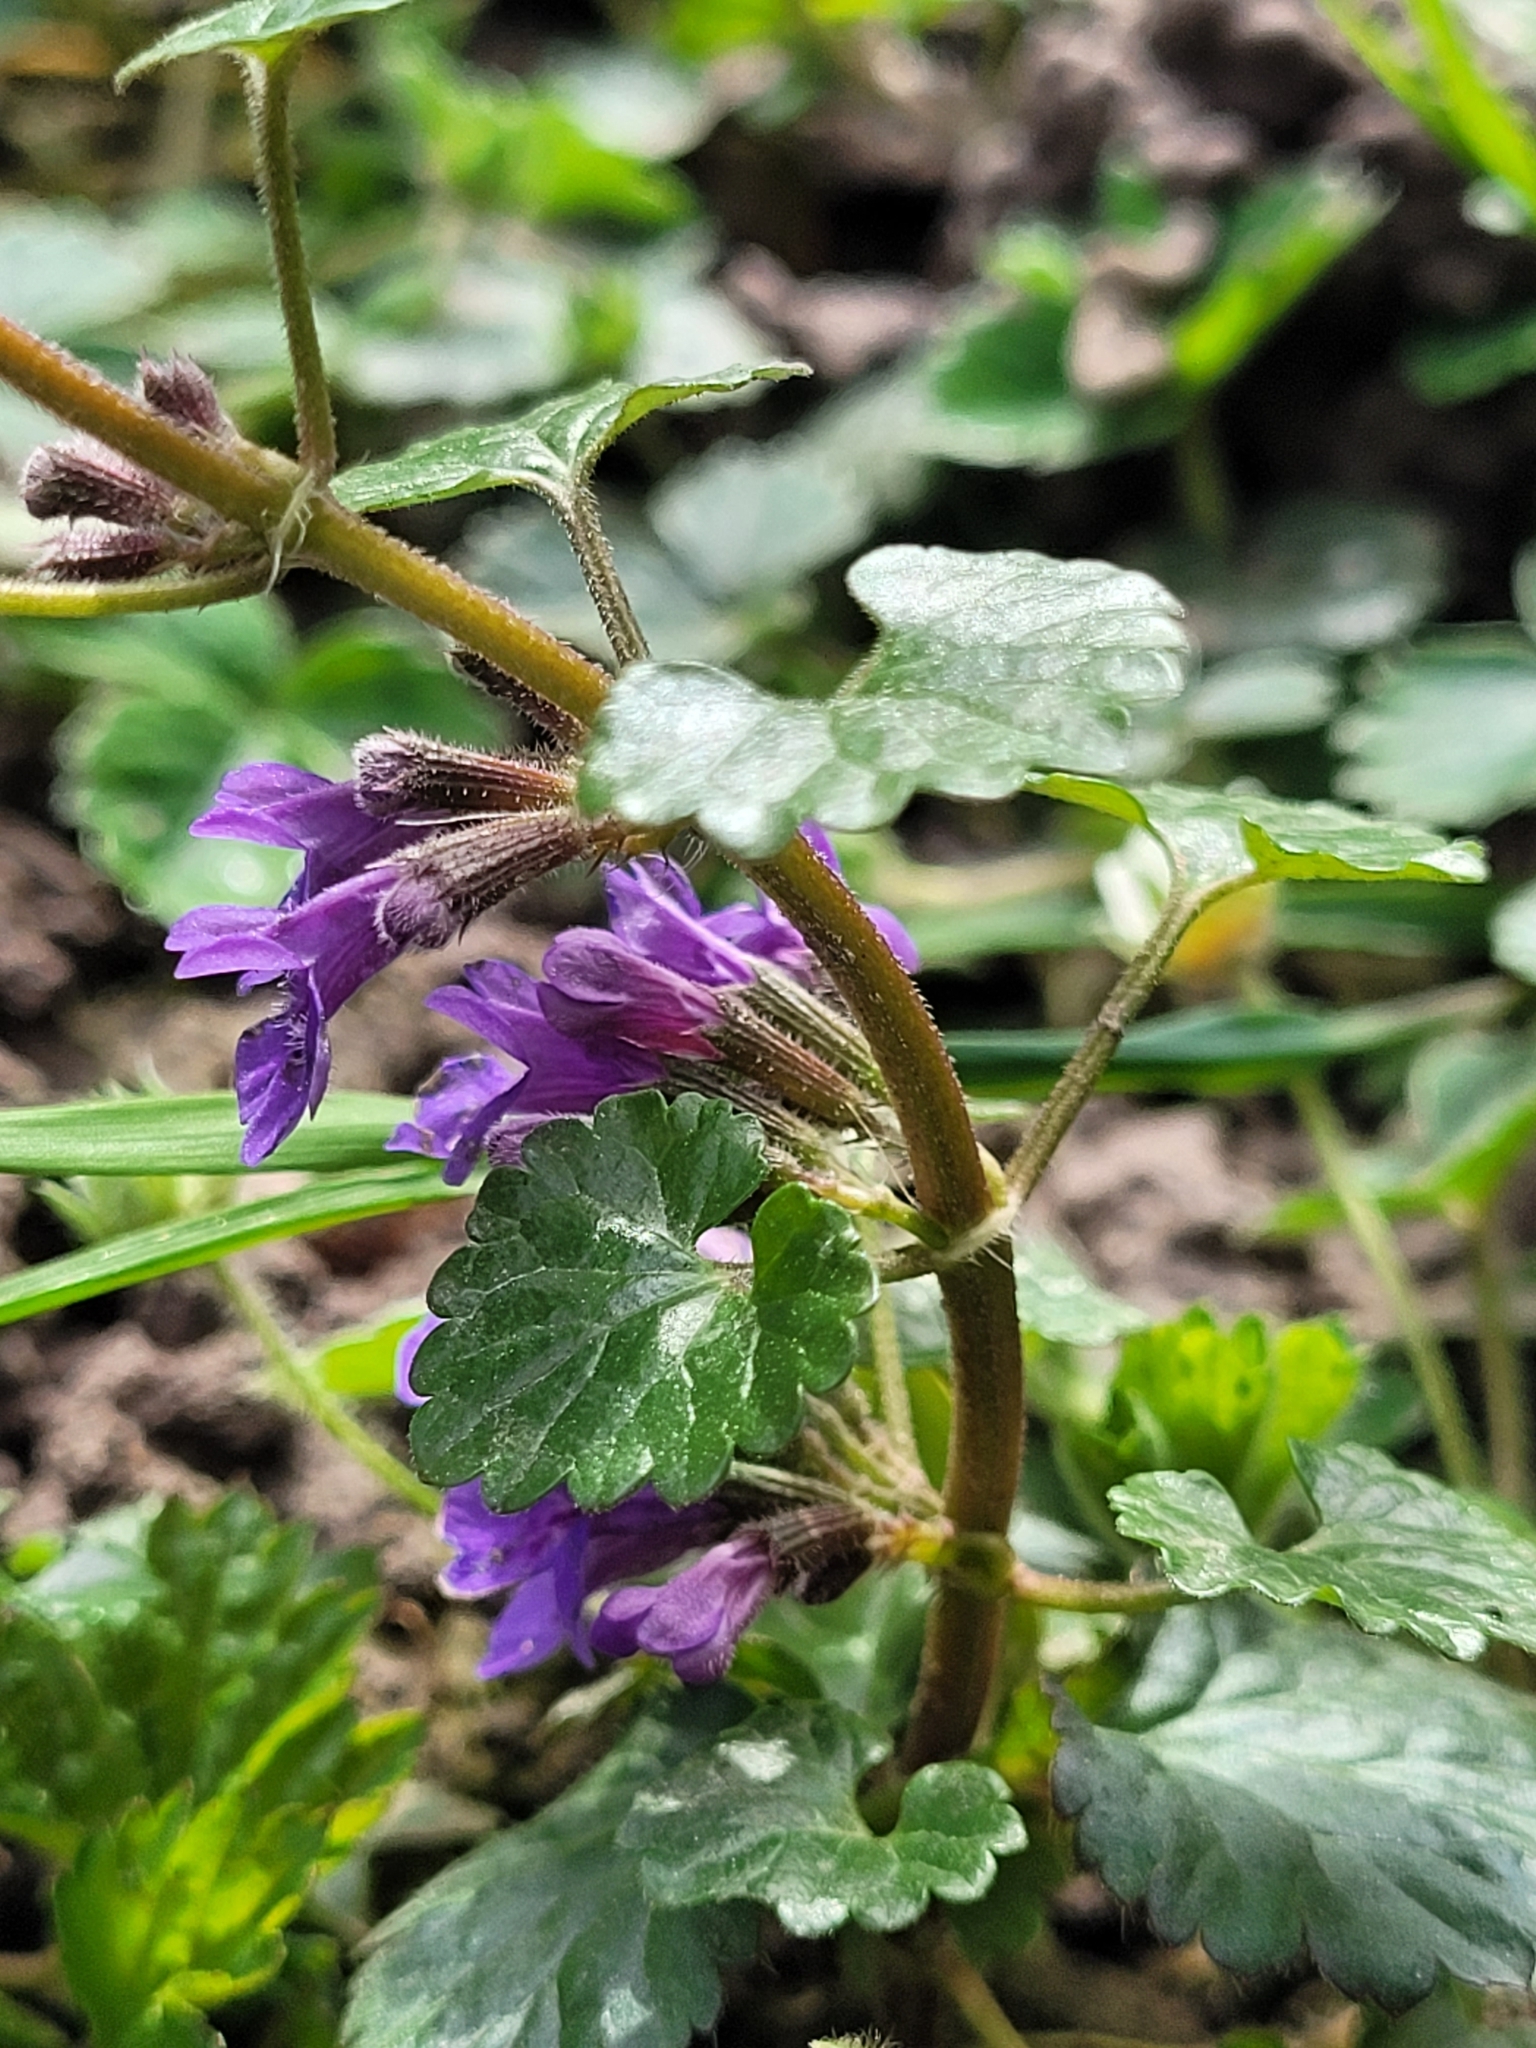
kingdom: Plantae
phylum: Tracheophyta
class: Magnoliopsida
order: Lamiales
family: Lamiaceae
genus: Glechoma
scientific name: Glechoma hederacea
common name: Ground ivy
